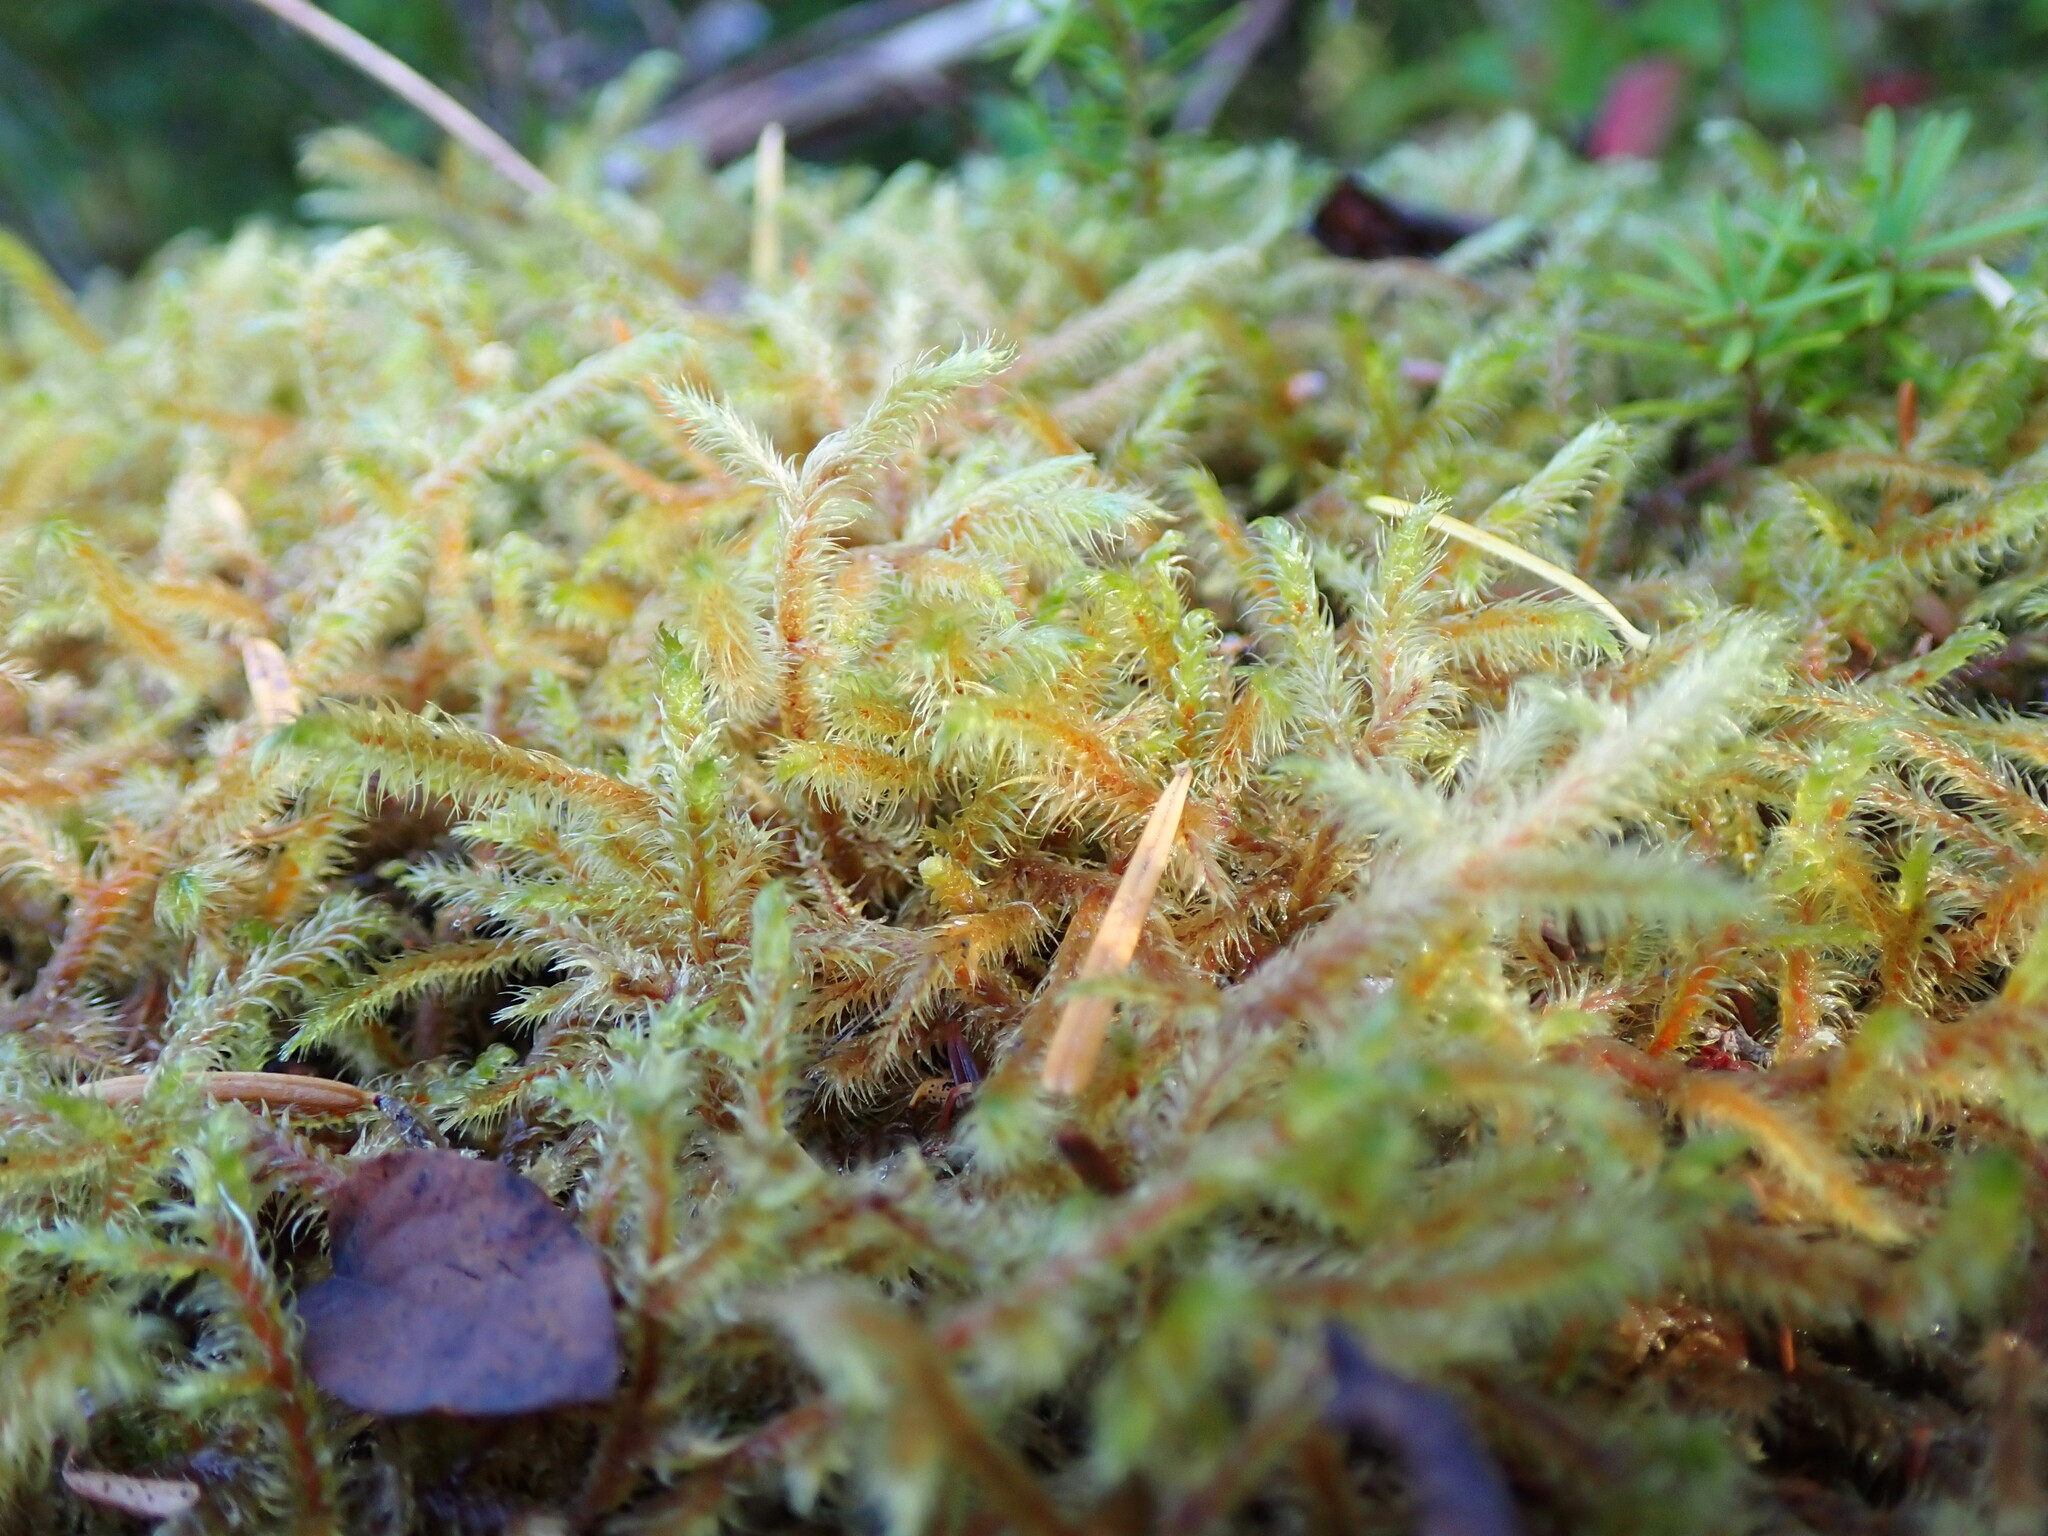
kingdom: Plantae
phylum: Bryophyta
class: Bryopsida
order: Hypnales
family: Hylocomiaceae
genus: Rhytidiadelphus
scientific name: Rhytidiadelphus loreus
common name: Lanky moss
